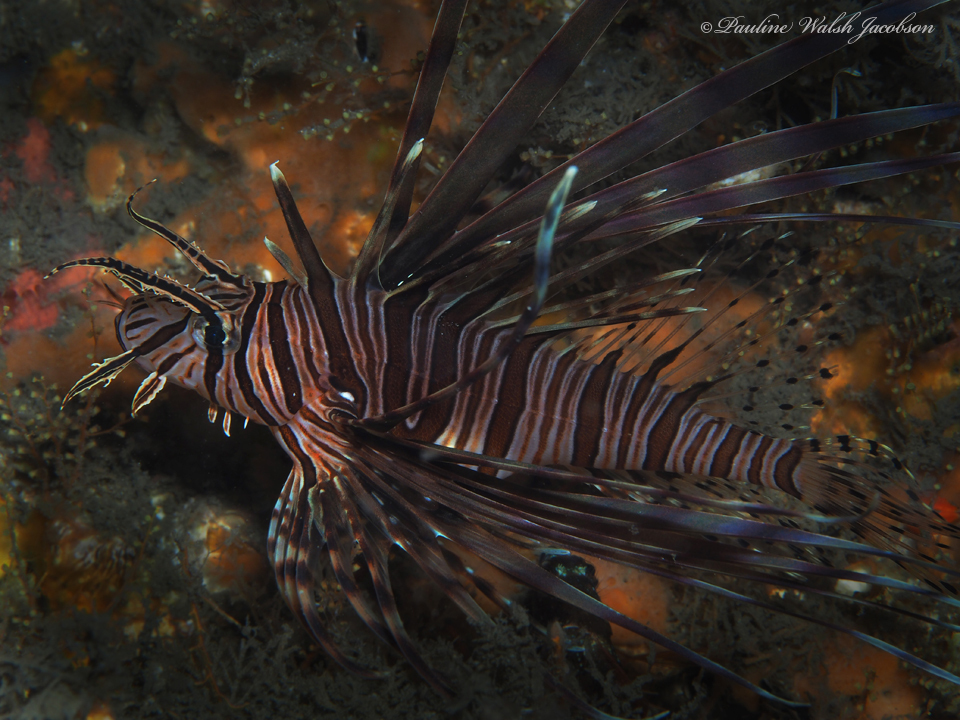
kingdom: Animalia
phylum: Chordata
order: Scorpaeniformes
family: Scorpaenidae
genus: Pterois
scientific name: Pterois volitans
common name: Lionfish
